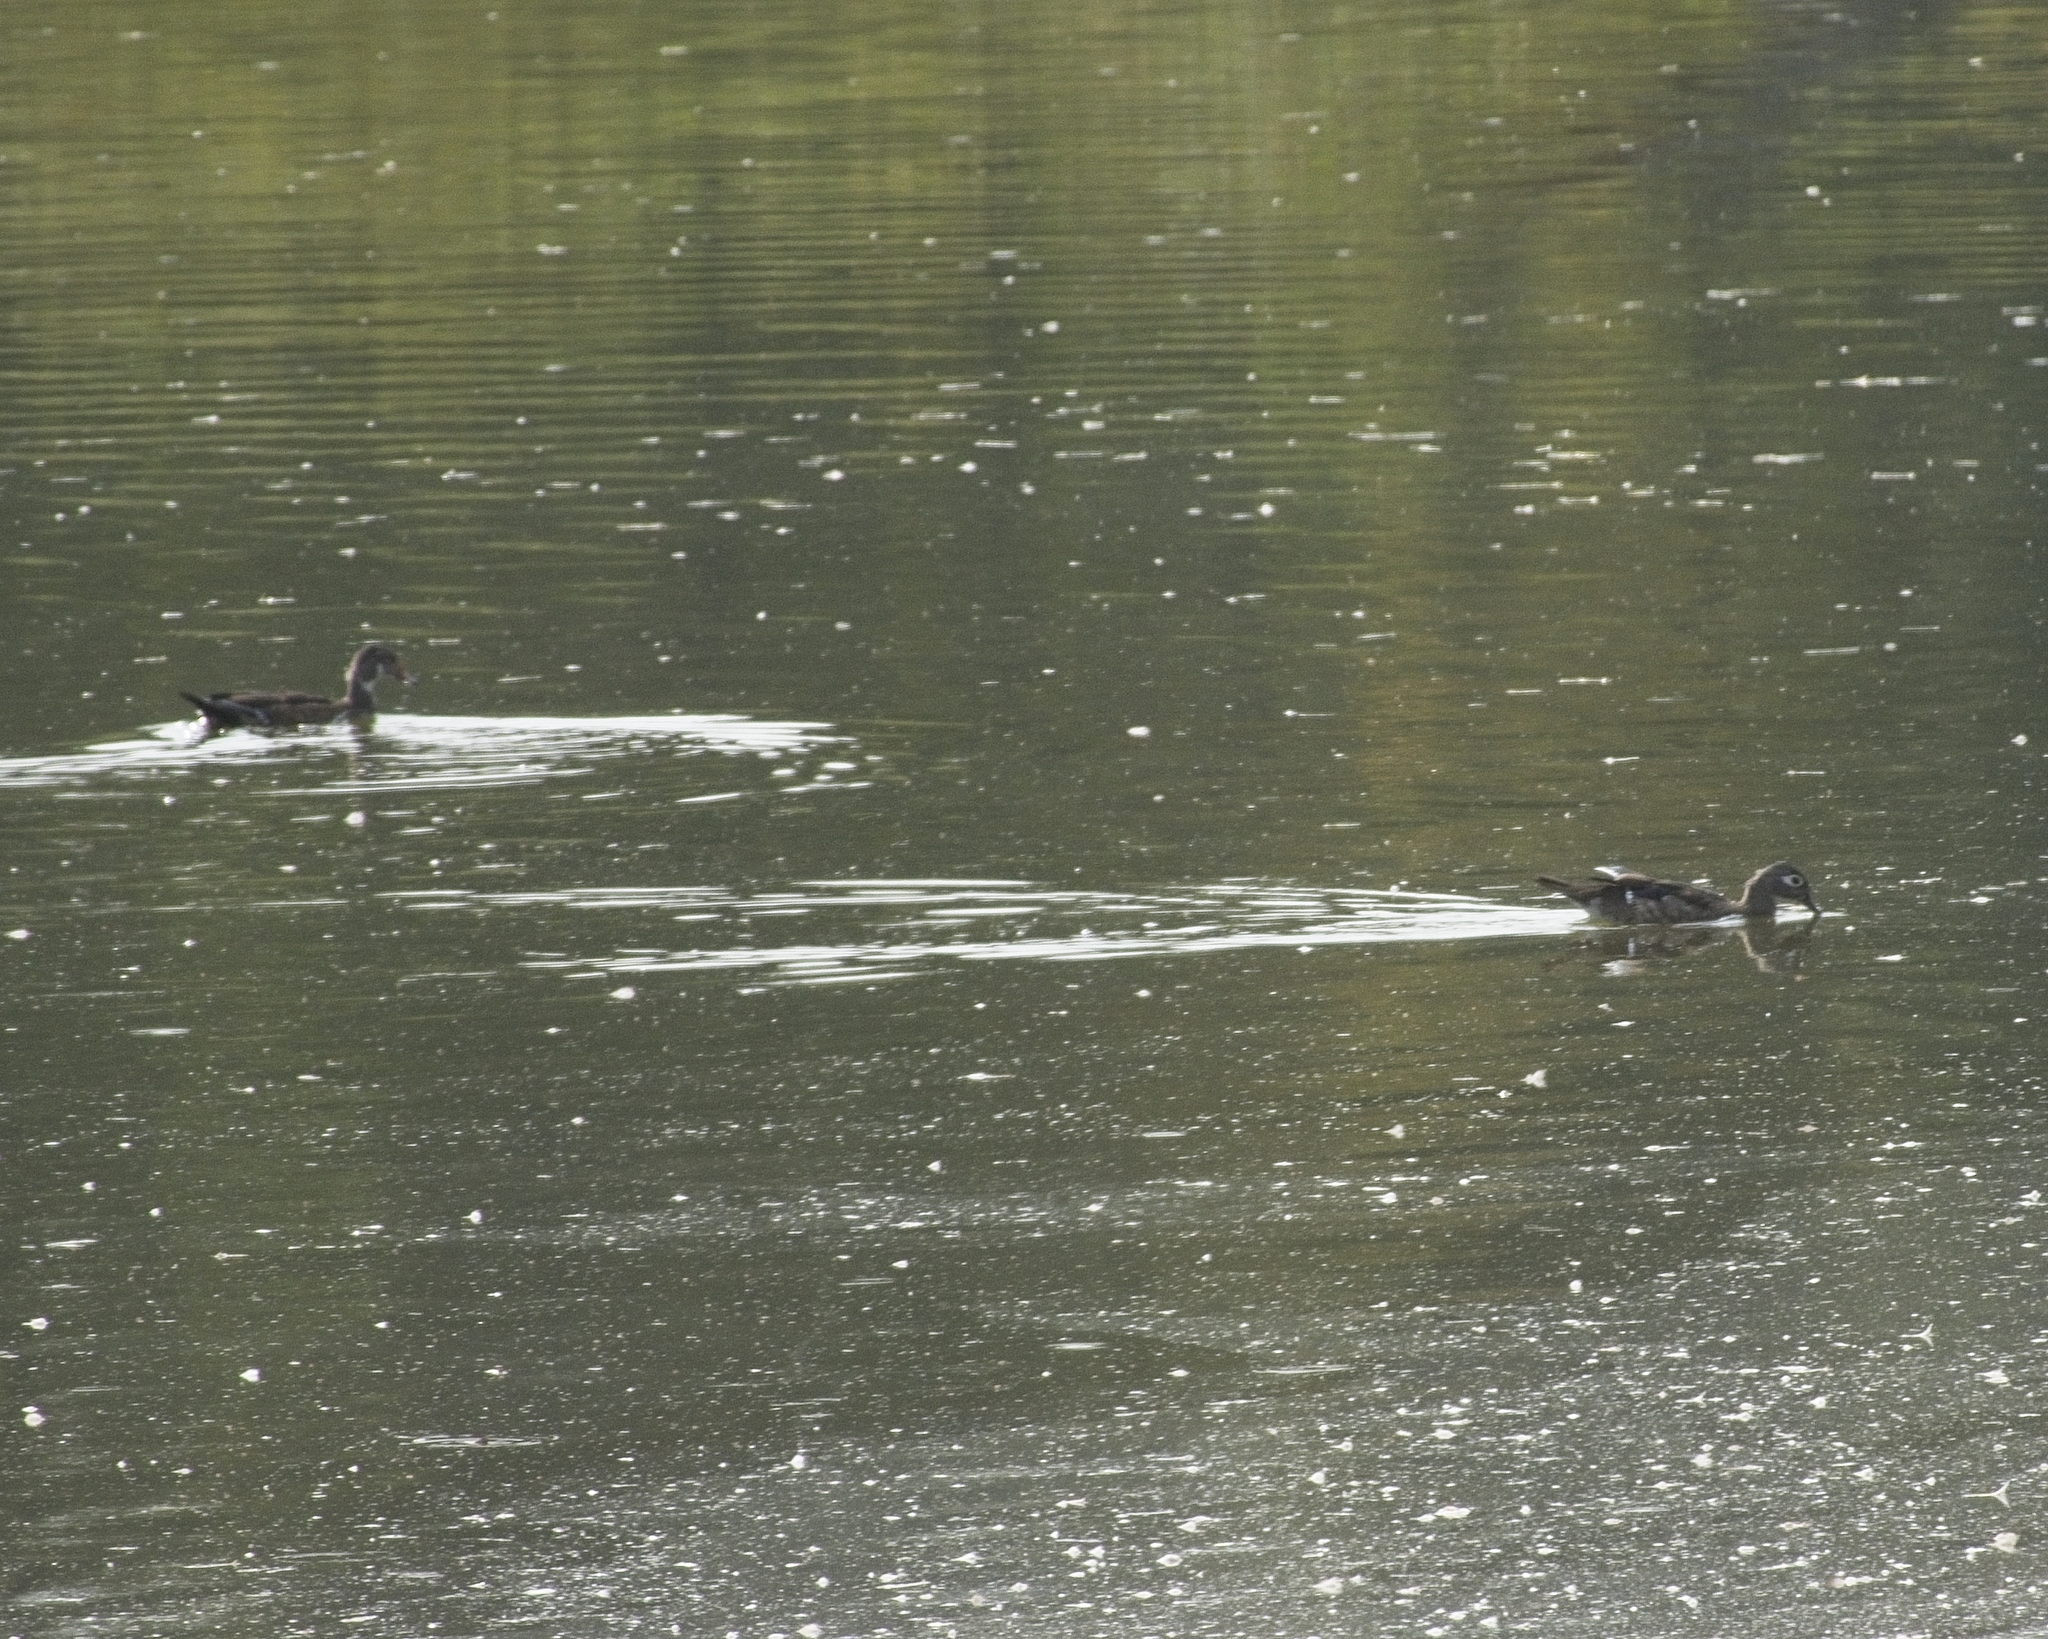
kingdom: Animalia
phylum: Chordata
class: Aves
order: Anseriformes
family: Anatidae
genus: Aix
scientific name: Aix sponsa
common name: Wood duck
